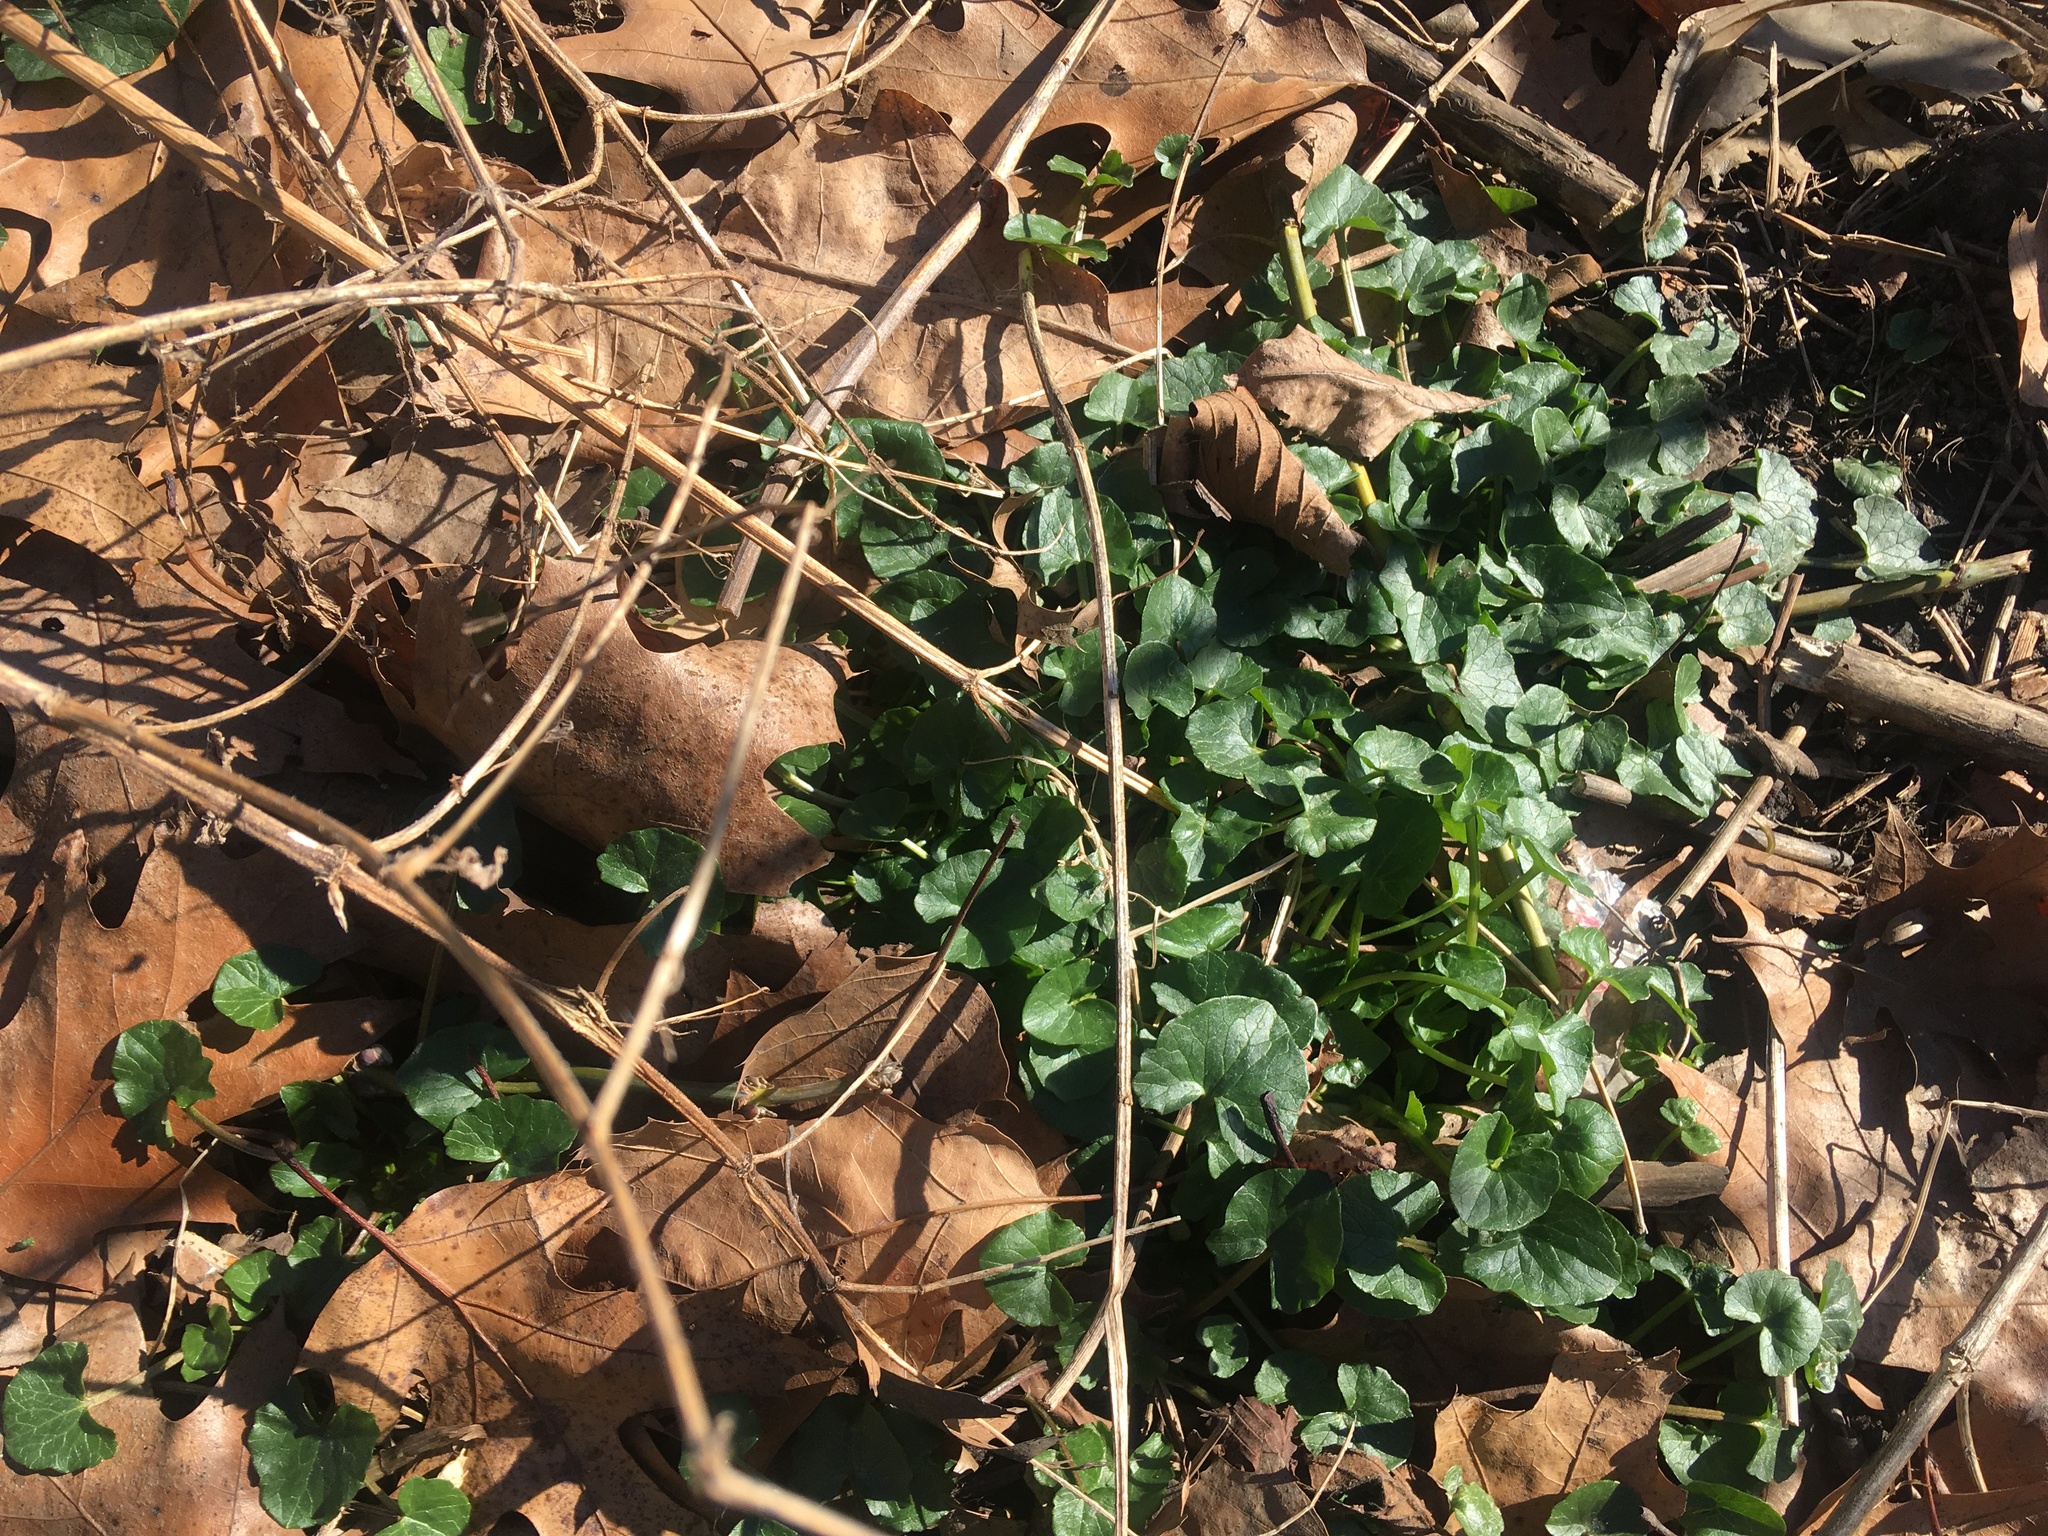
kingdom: Plantae
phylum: Tracheophyta
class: Magnoliopsida
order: Ranunculales
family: Ranunculaceae
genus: Ficaria
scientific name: Ficaria verna
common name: Lesser celandine
